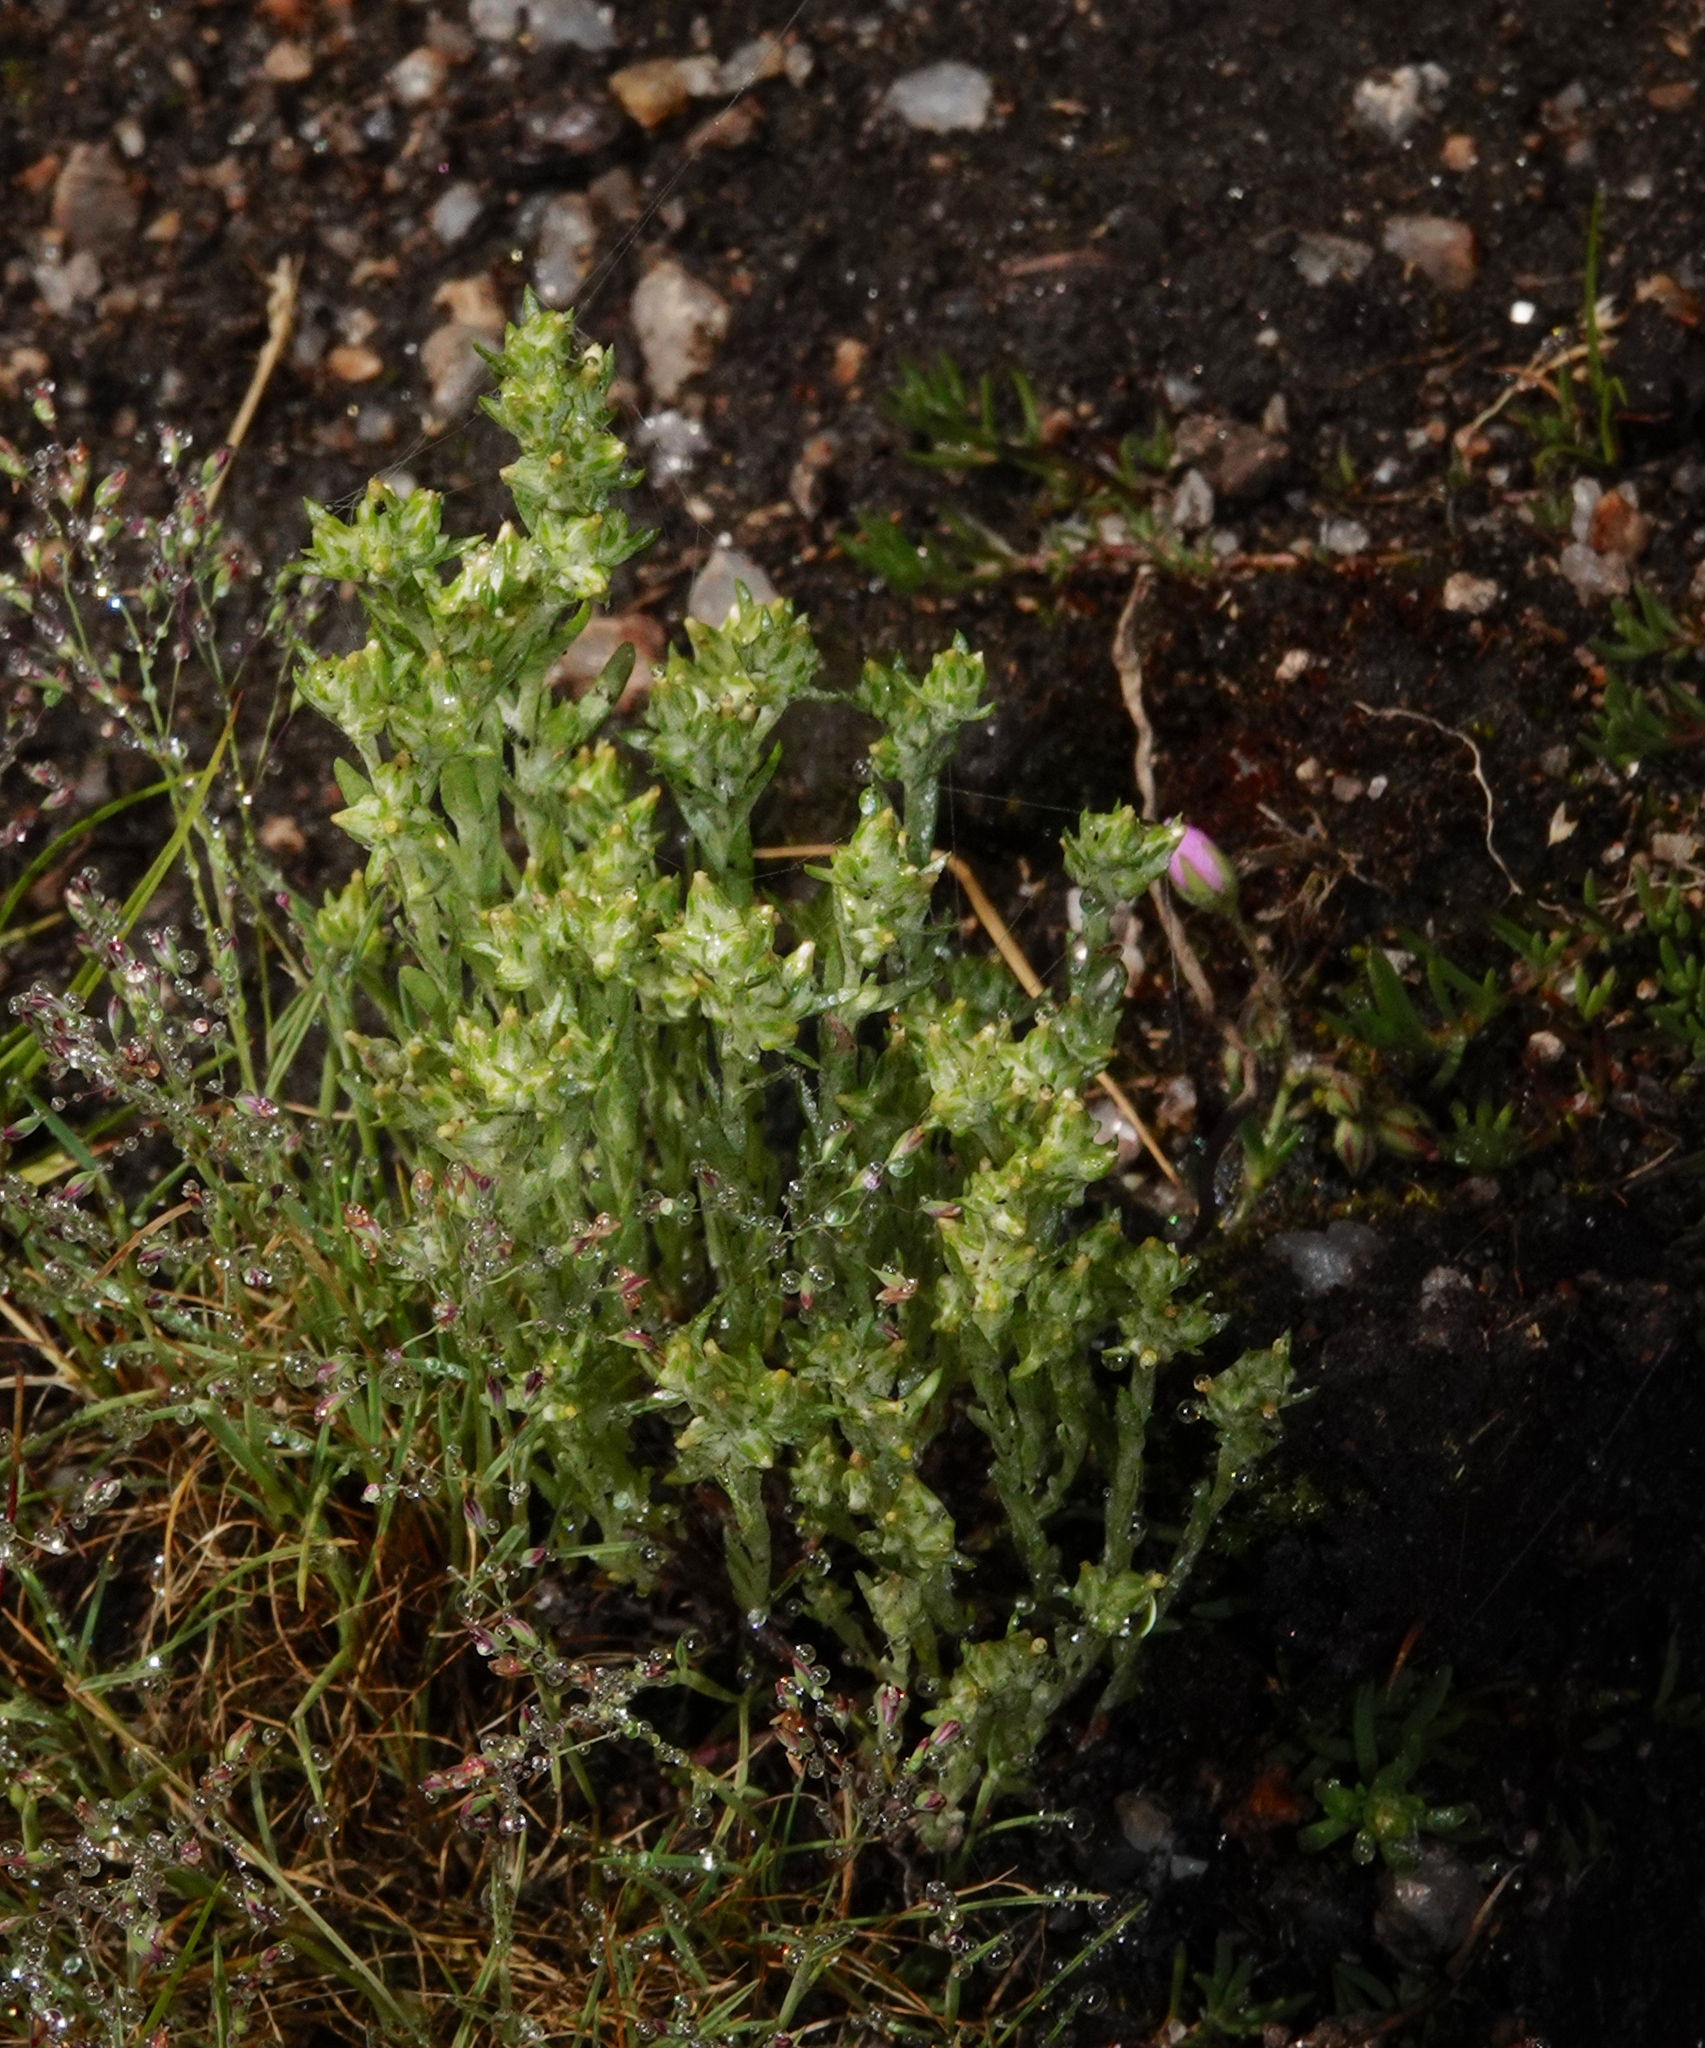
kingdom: Plantae
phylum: Tracheophyta
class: Magnoliopsida
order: Asterales
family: Asteraceae
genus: Logfia
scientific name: Logfia minima
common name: Little cottonrose
